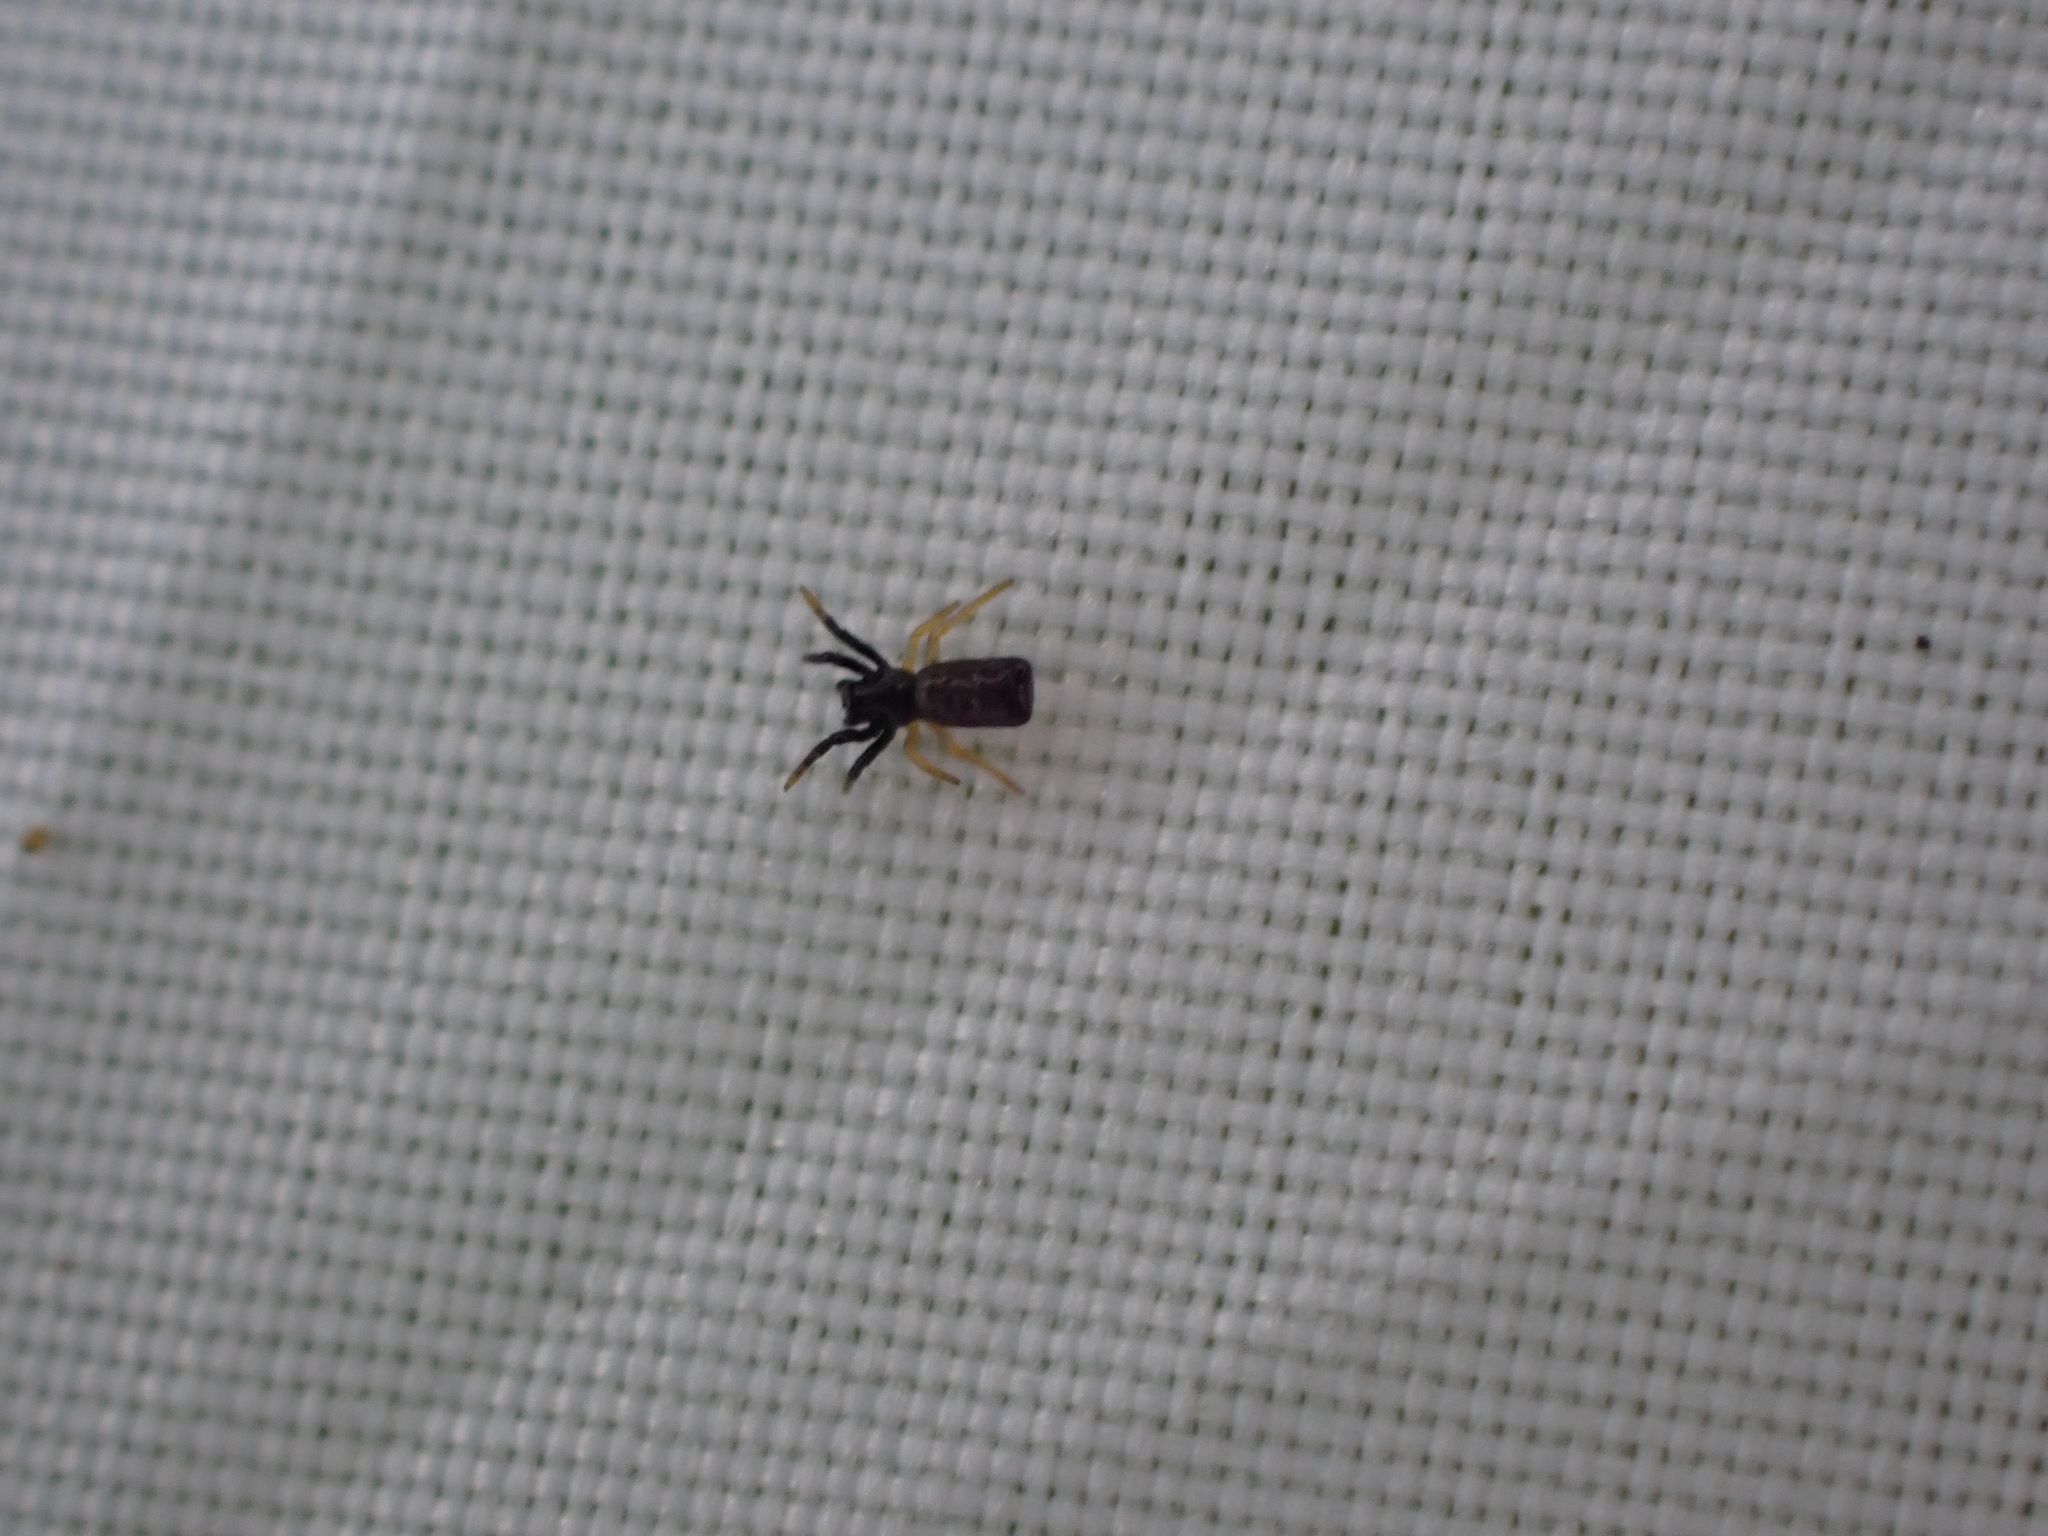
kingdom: Animalia
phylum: Arthropoda
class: Arachnida
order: Araneae
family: Araneidae
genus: Micrathena
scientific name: Micrathena sagittata
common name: Orb weavers
